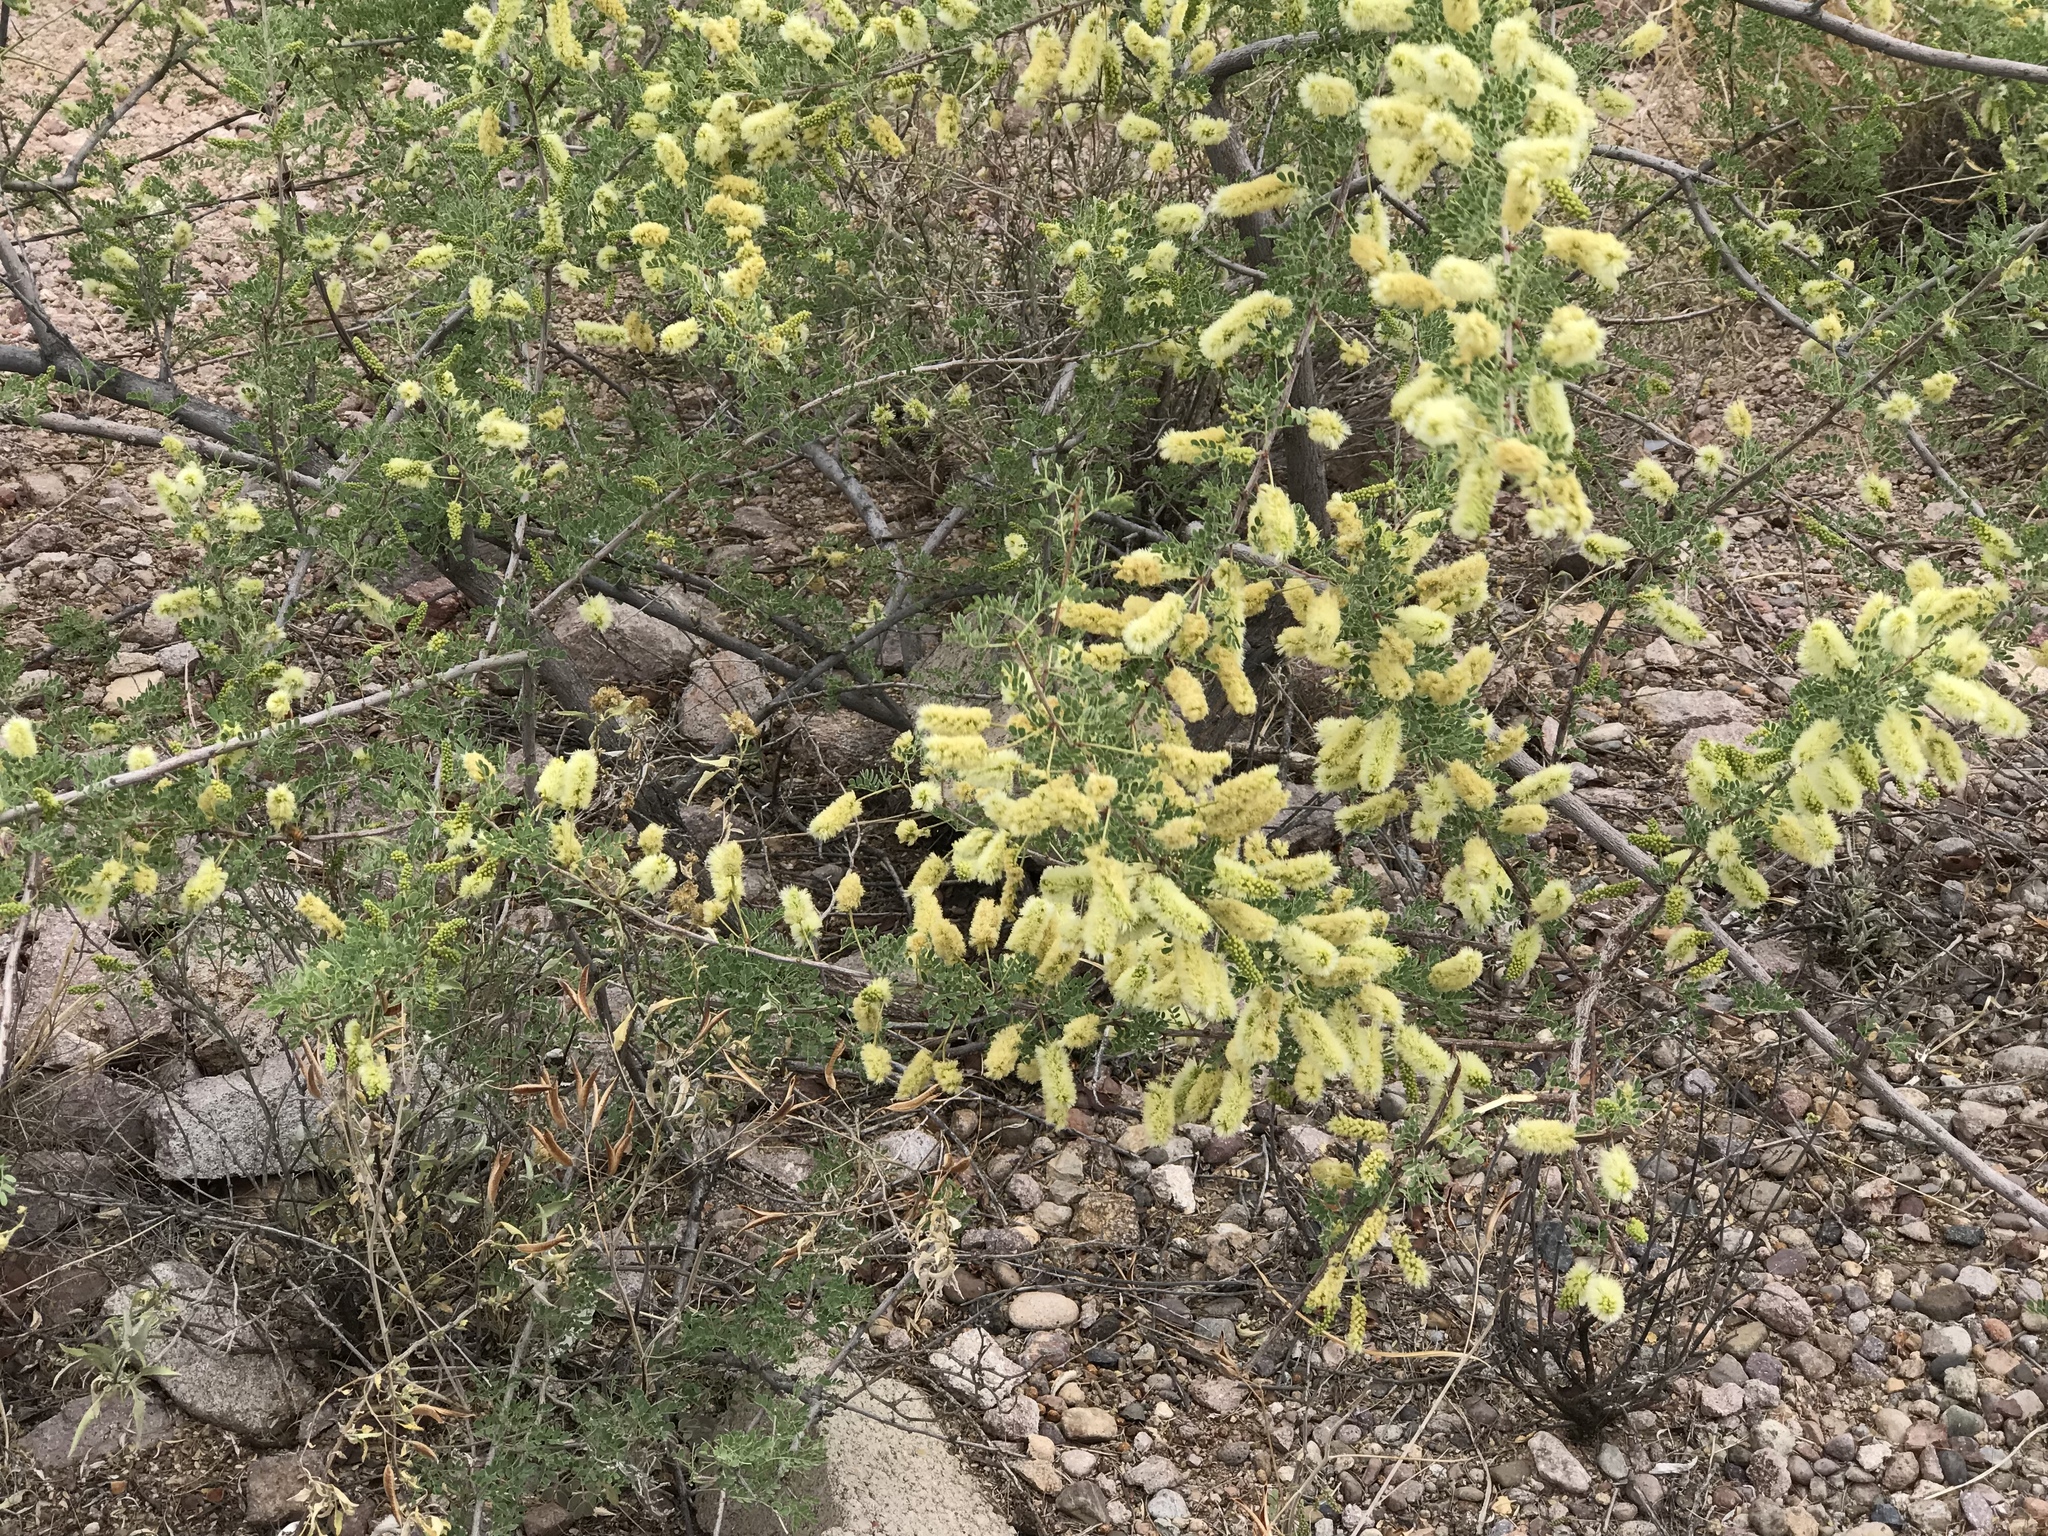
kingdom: Plantae
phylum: Tracheophyta
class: Magnoliopsida
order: Fabales
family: Fabaceae
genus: Senegalia
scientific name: Senegalia greggii
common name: Texas-mimosa
